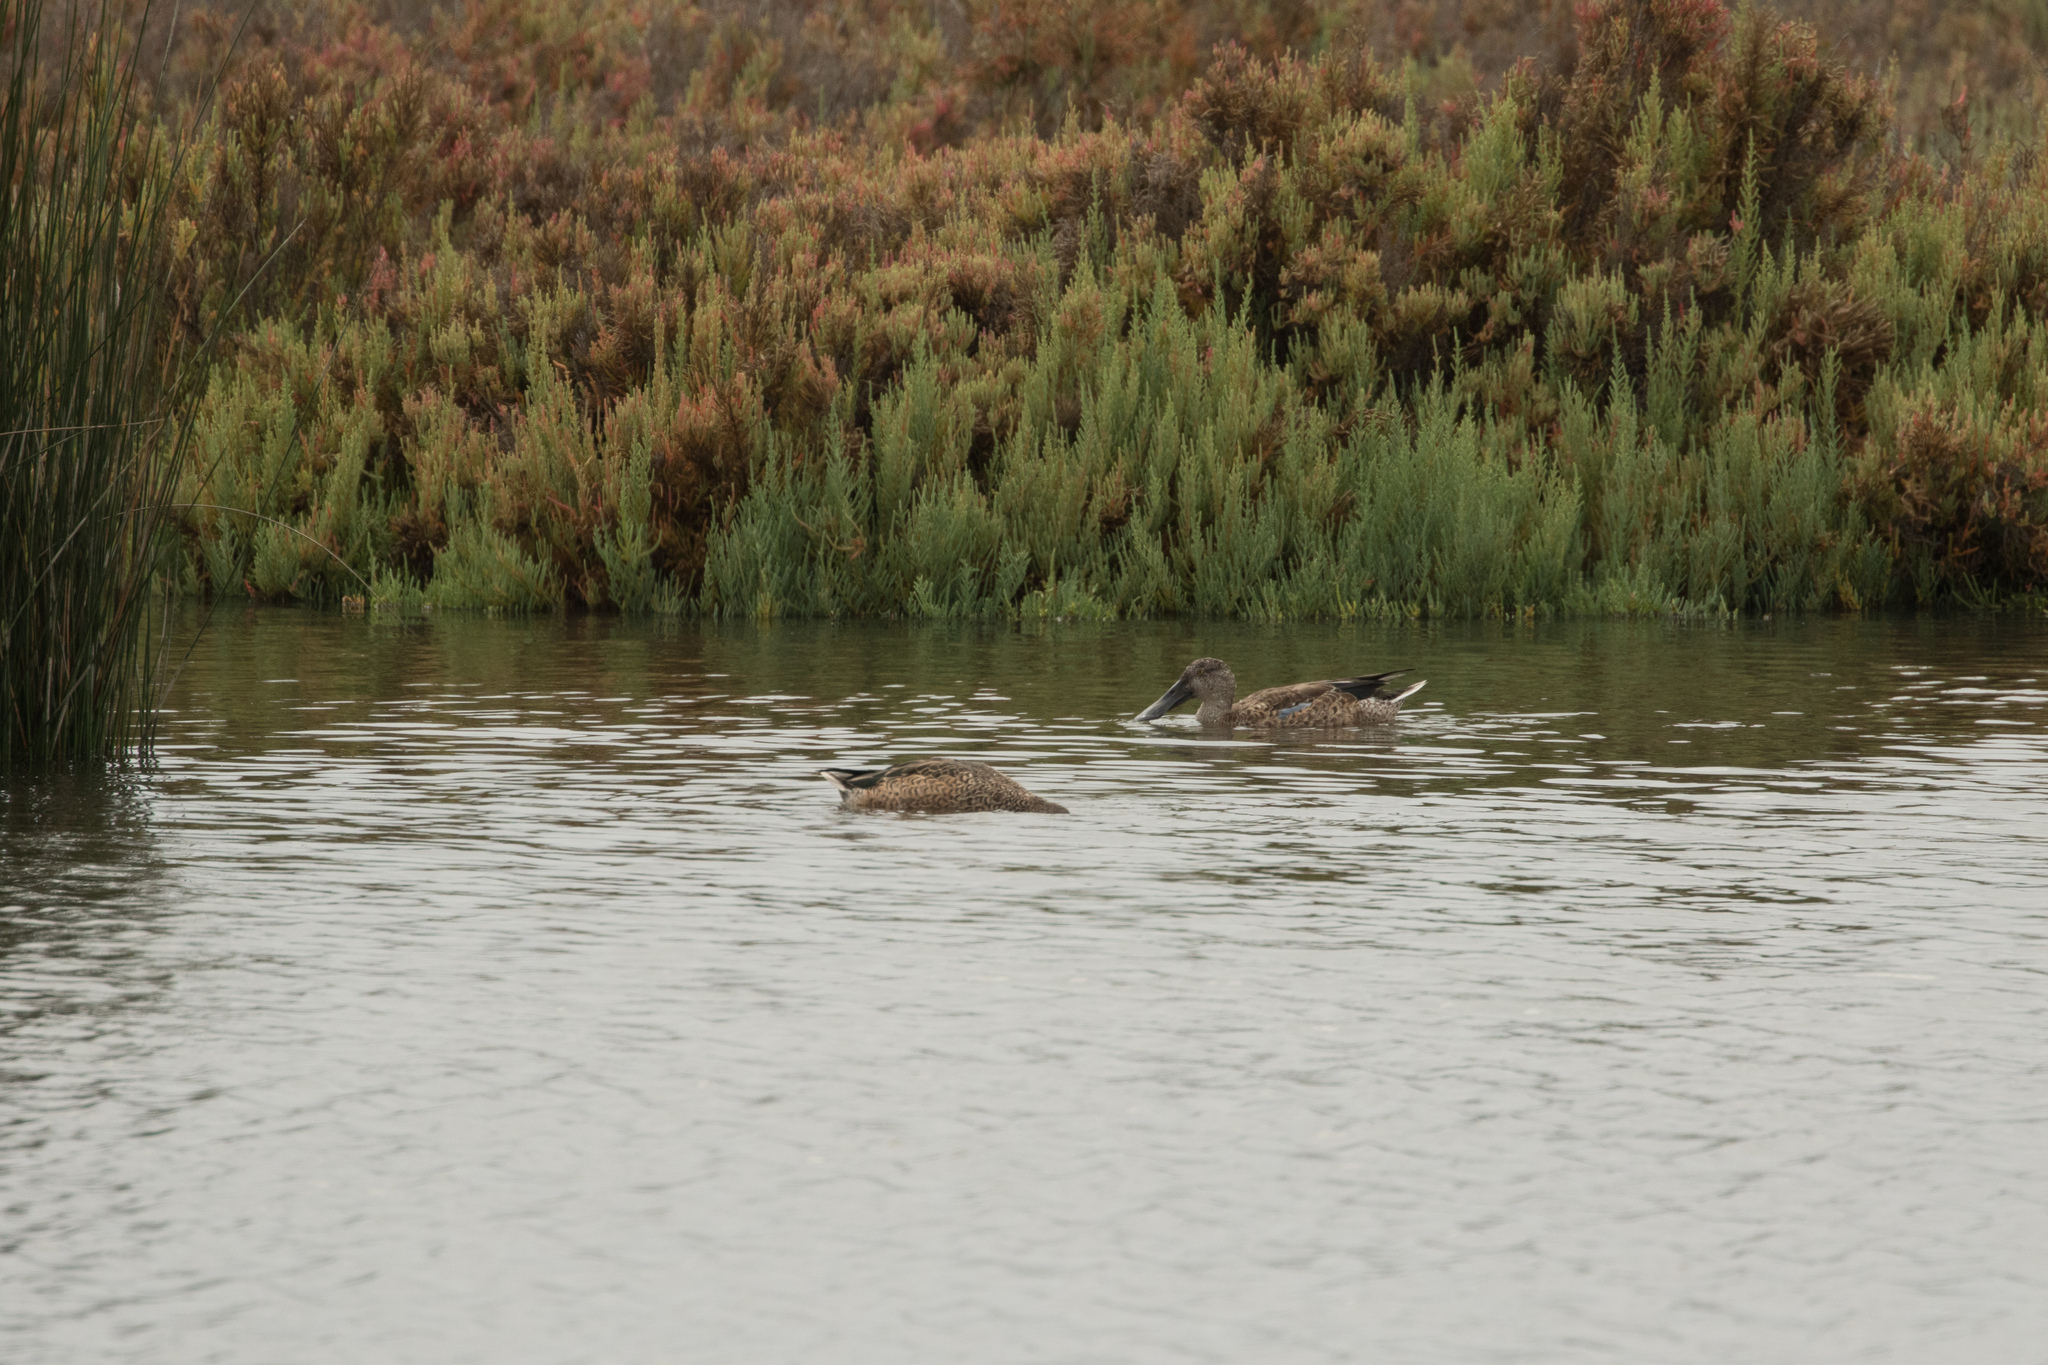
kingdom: Animalia
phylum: Chordata
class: Aves
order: Anseriformes
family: Anatidae
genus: Spatula
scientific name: Spatula clypeata
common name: Northern shoveler
